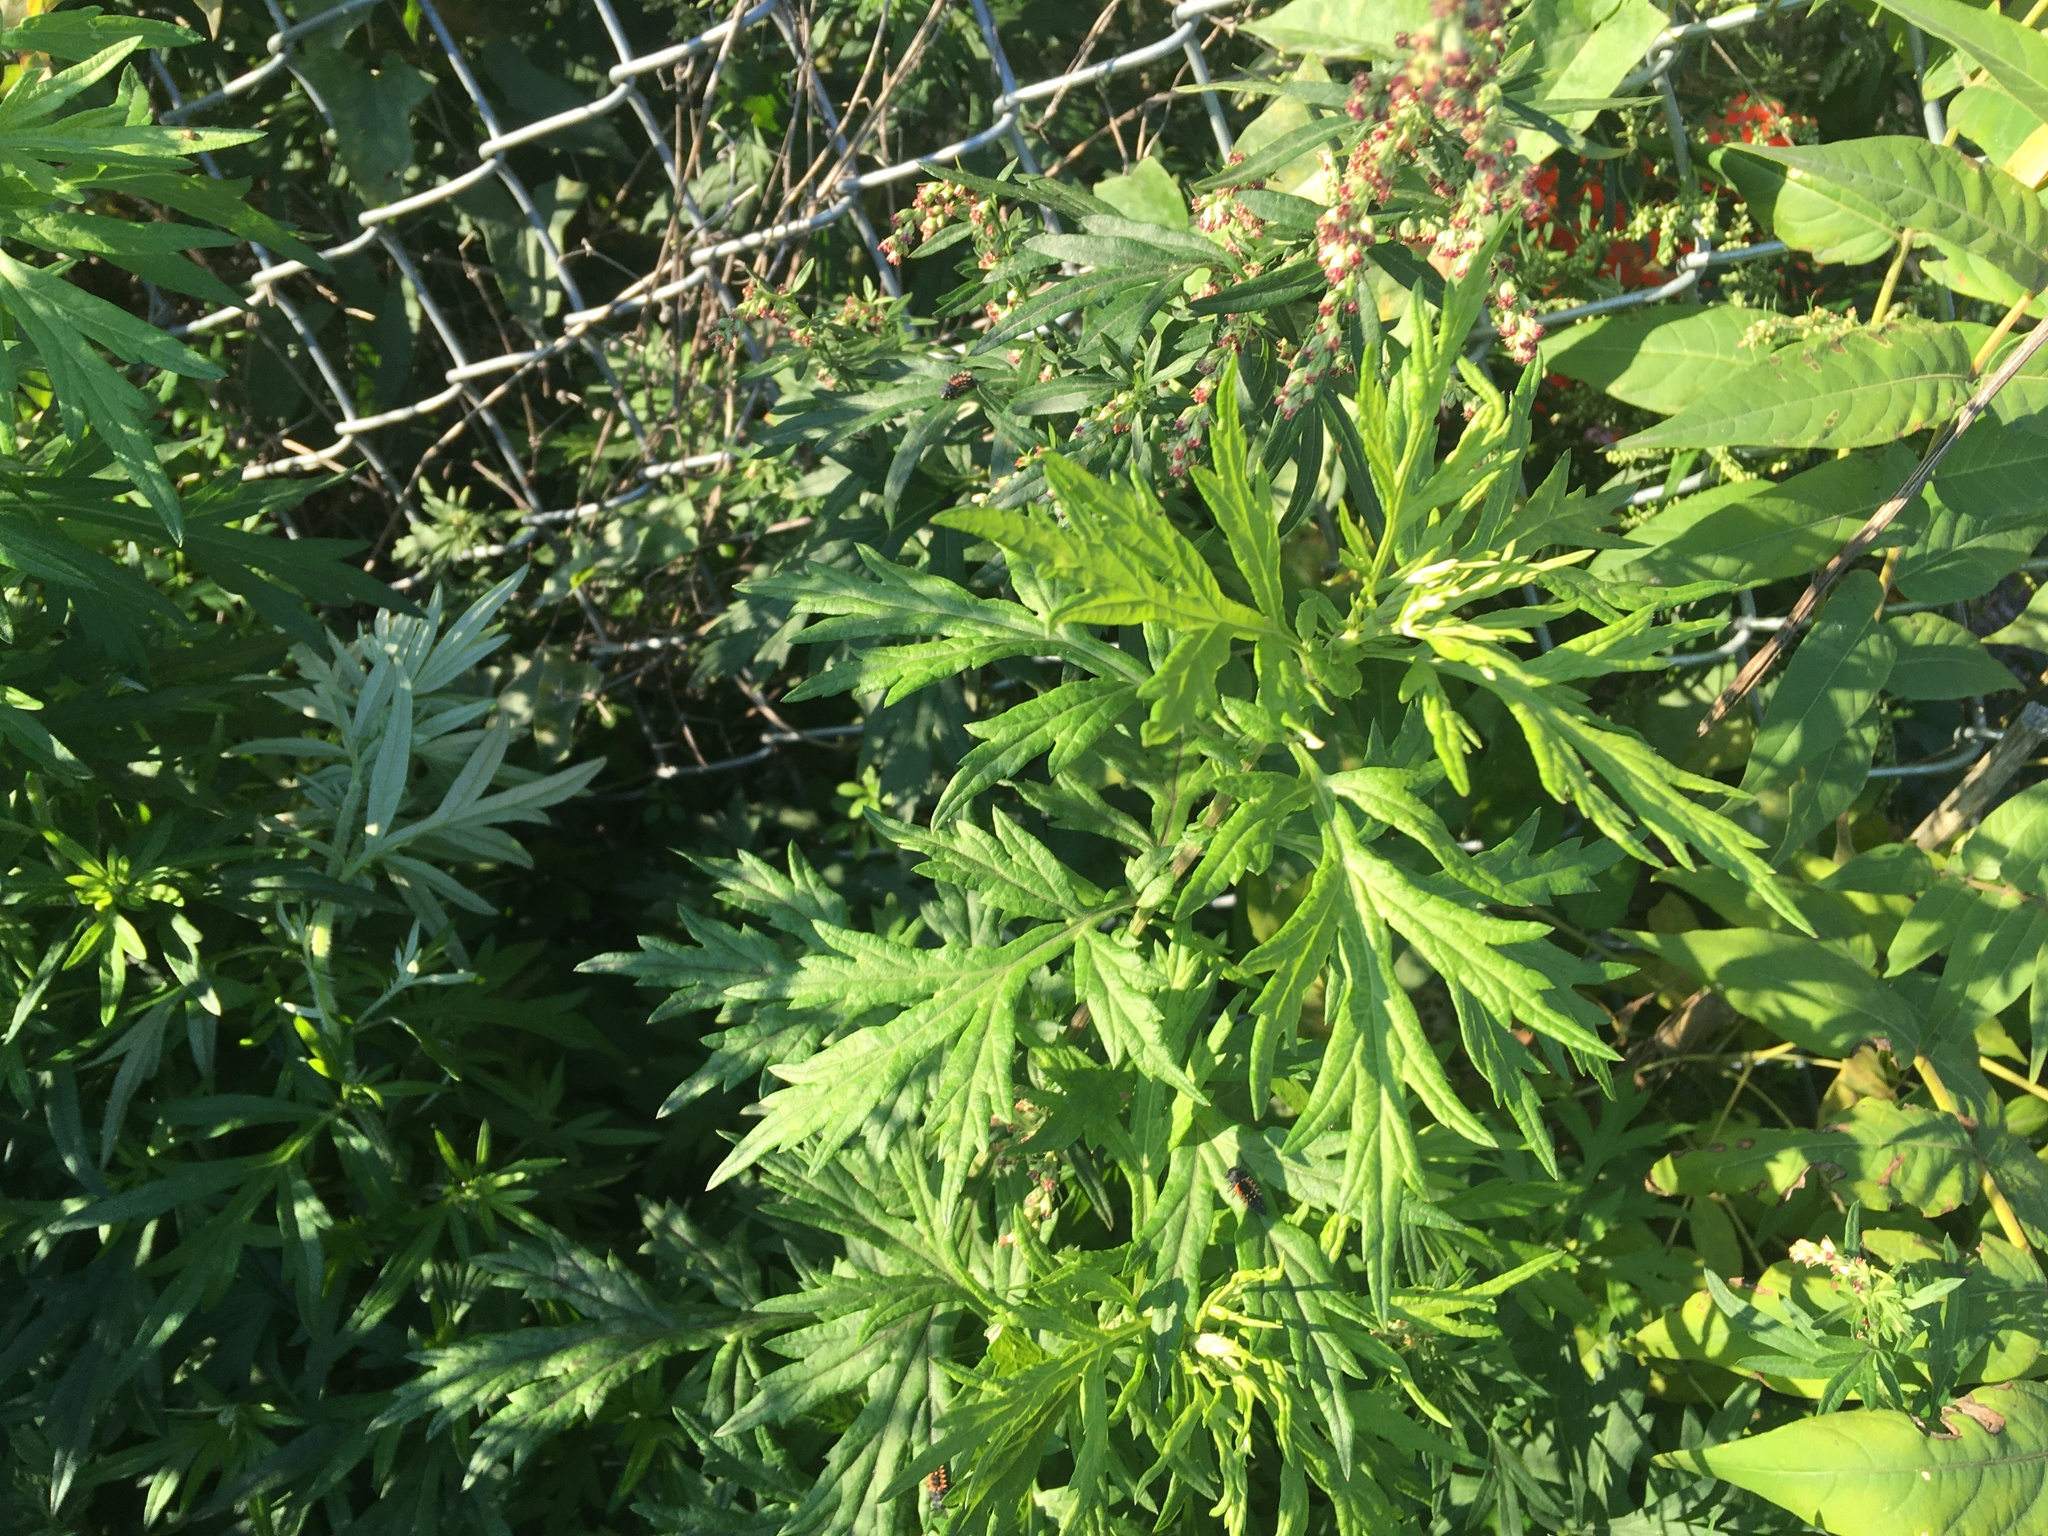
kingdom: Plantae
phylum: Tracheophyta
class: Magnoliopsida
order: Asterales
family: Asteraceae
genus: Artemisia
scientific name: Artemisia vulgaris
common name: Mugwort
